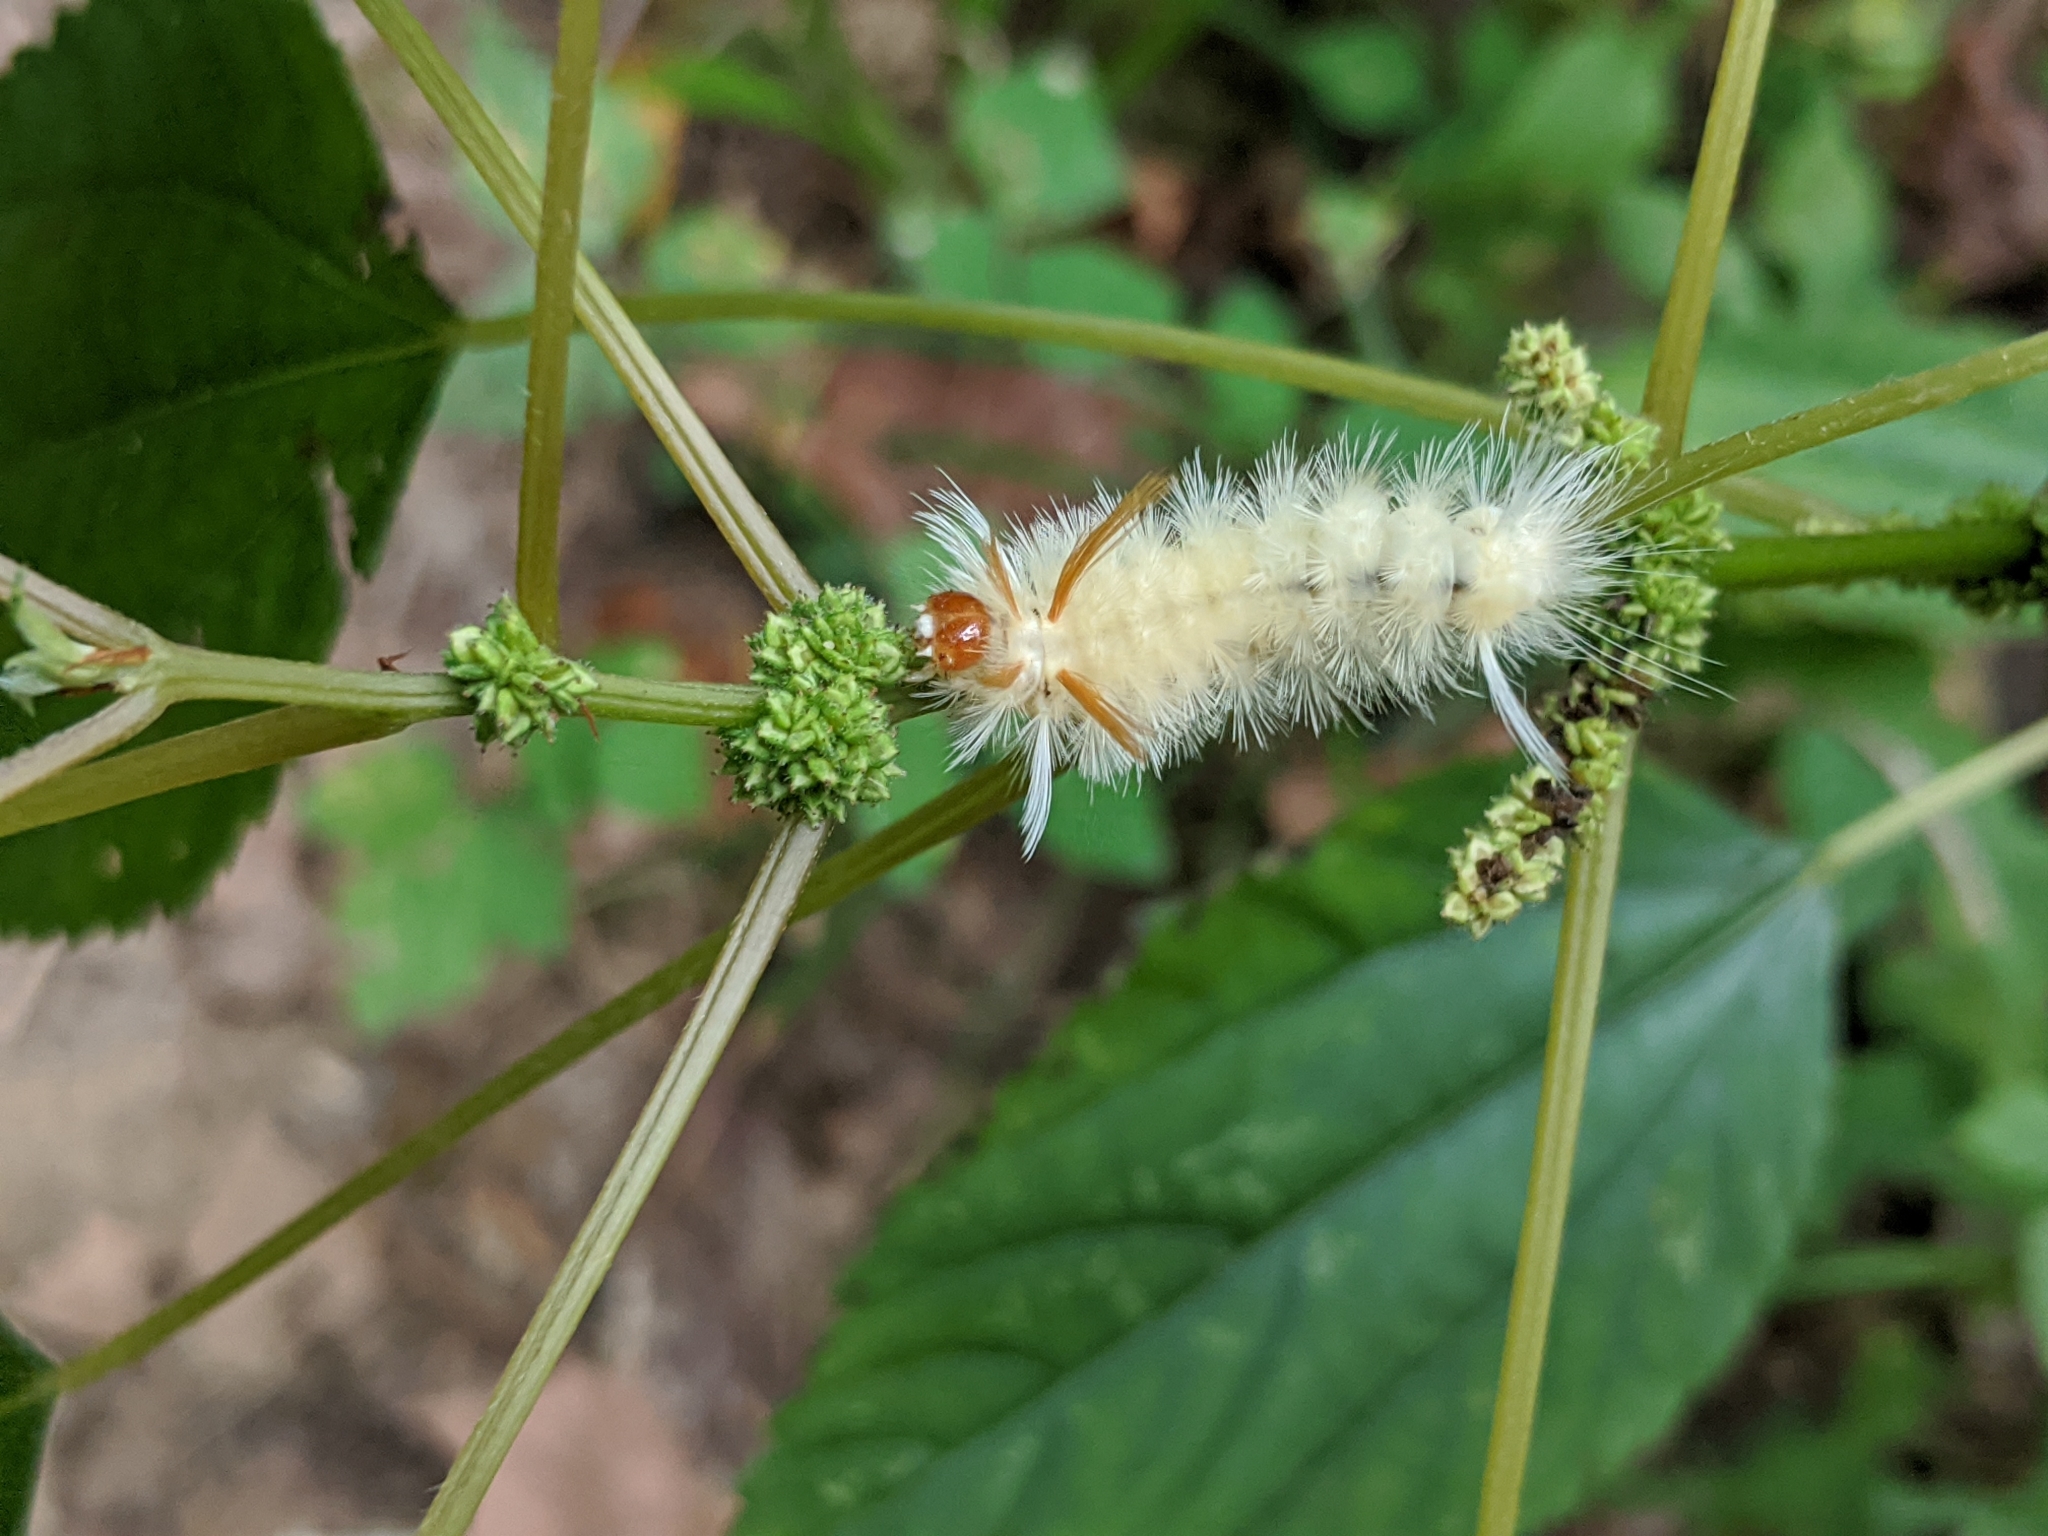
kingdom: Animalia
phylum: Arthropoda
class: Insecta
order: Lepidoptera
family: Erebidae
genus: Halysidota
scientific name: Halysidota harrisii
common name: Sycamore tussock moth
